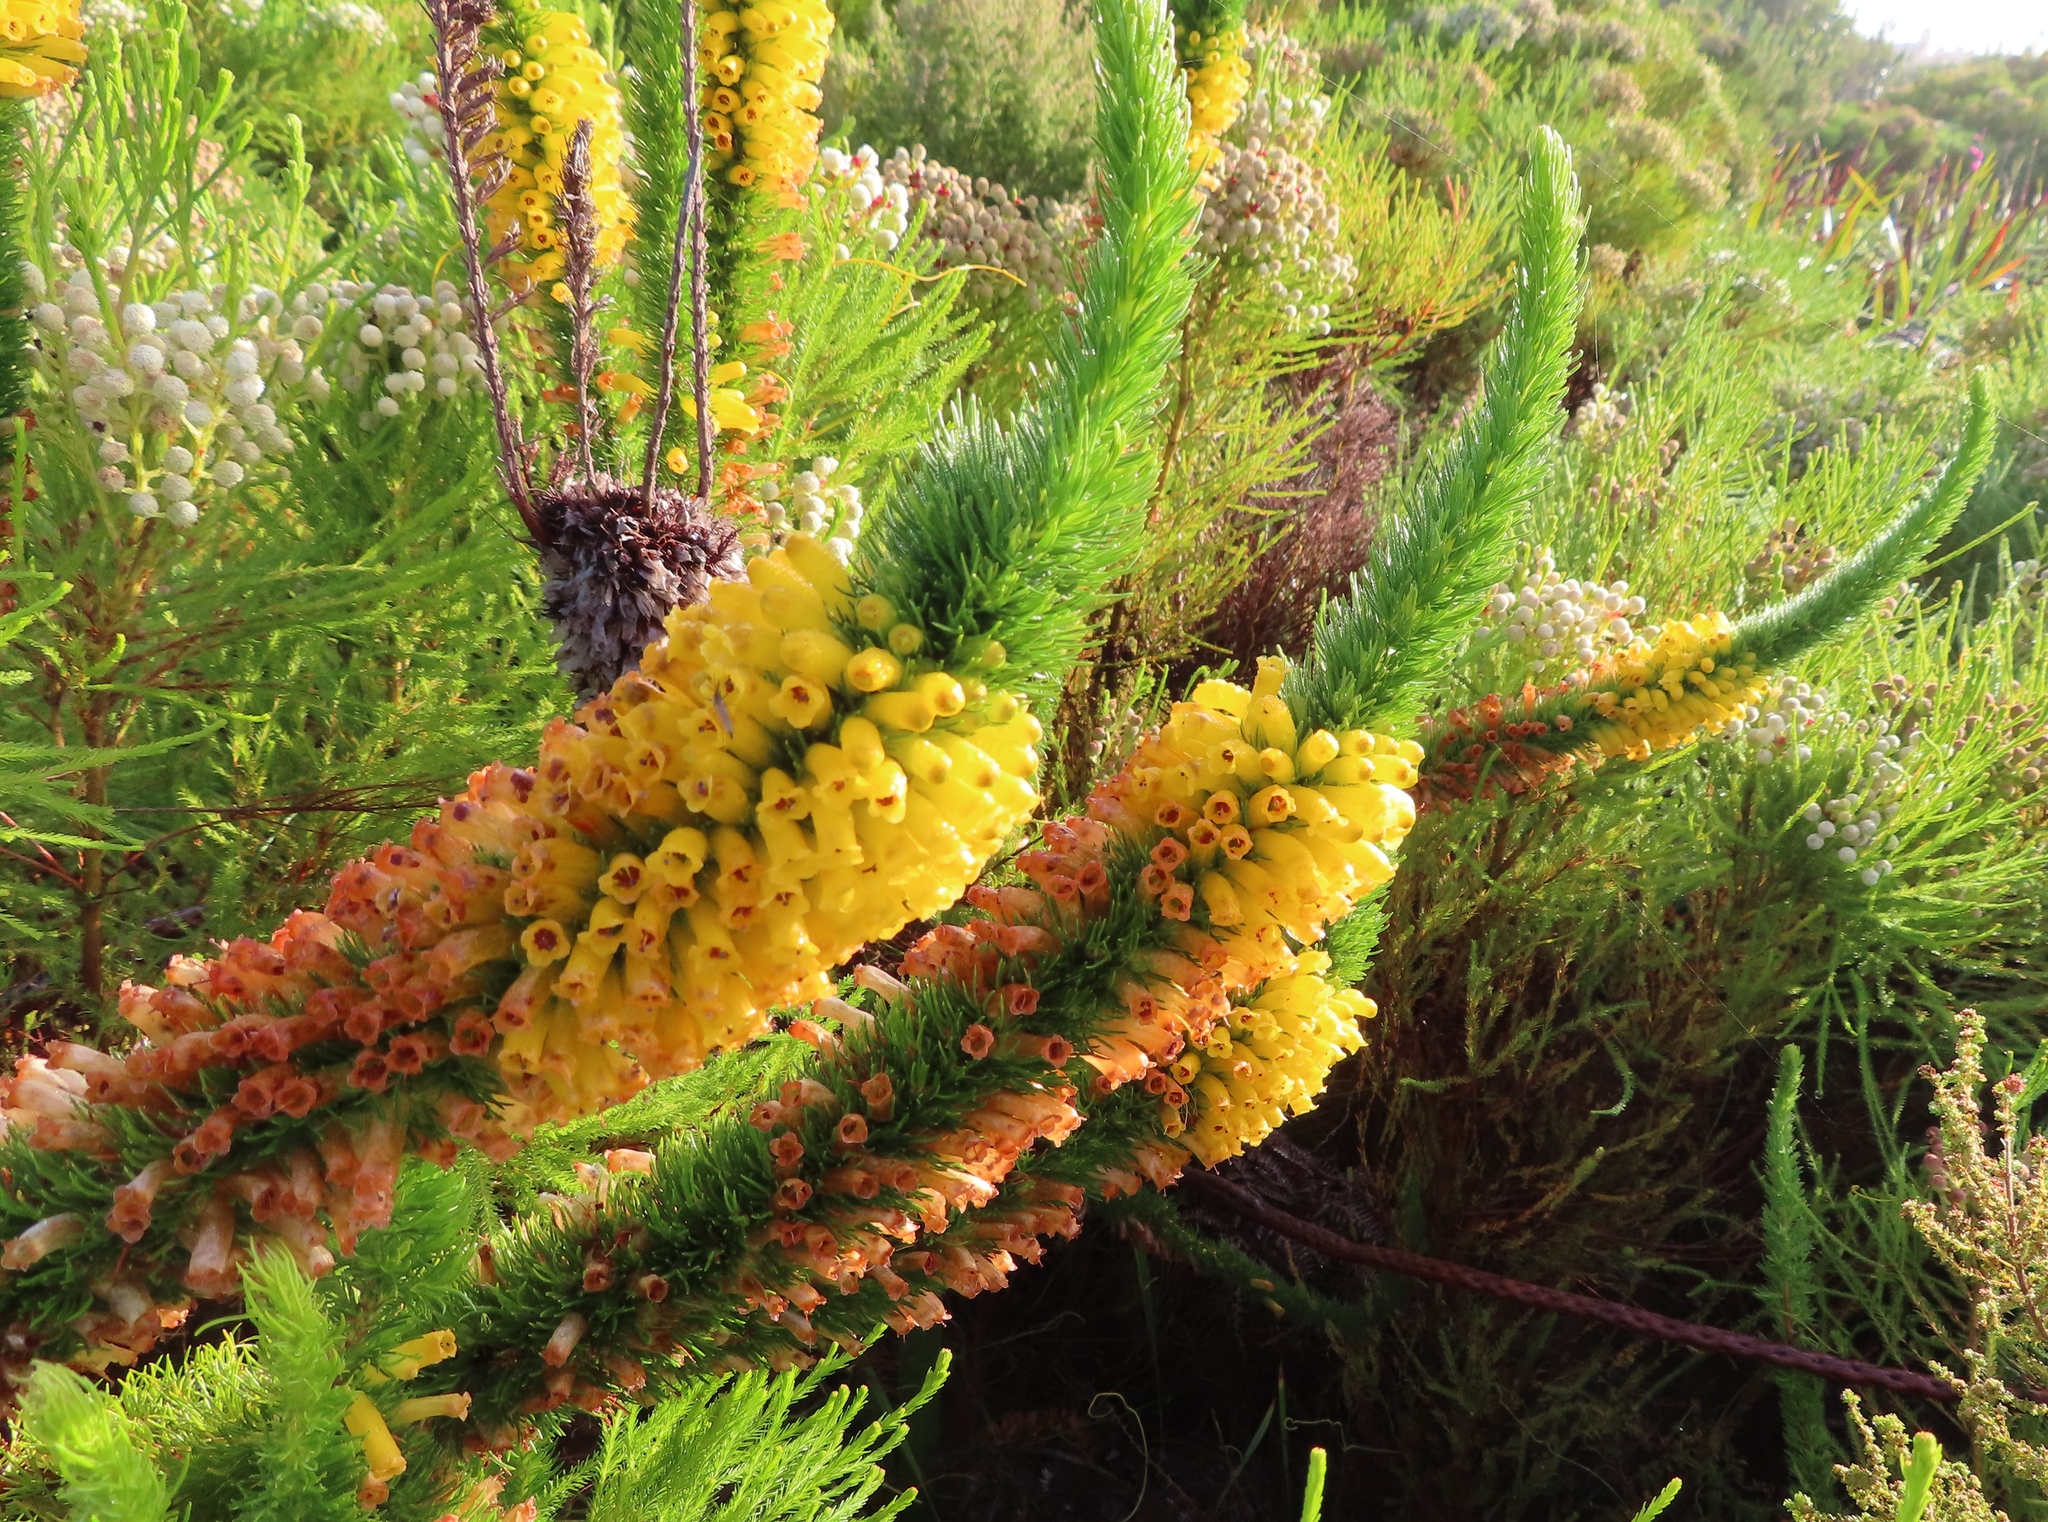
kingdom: Plantae
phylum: Tracheophyta
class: Magnoliopsida
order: Ericales
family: Ericaceae
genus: Erica
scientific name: Erica patersonia
